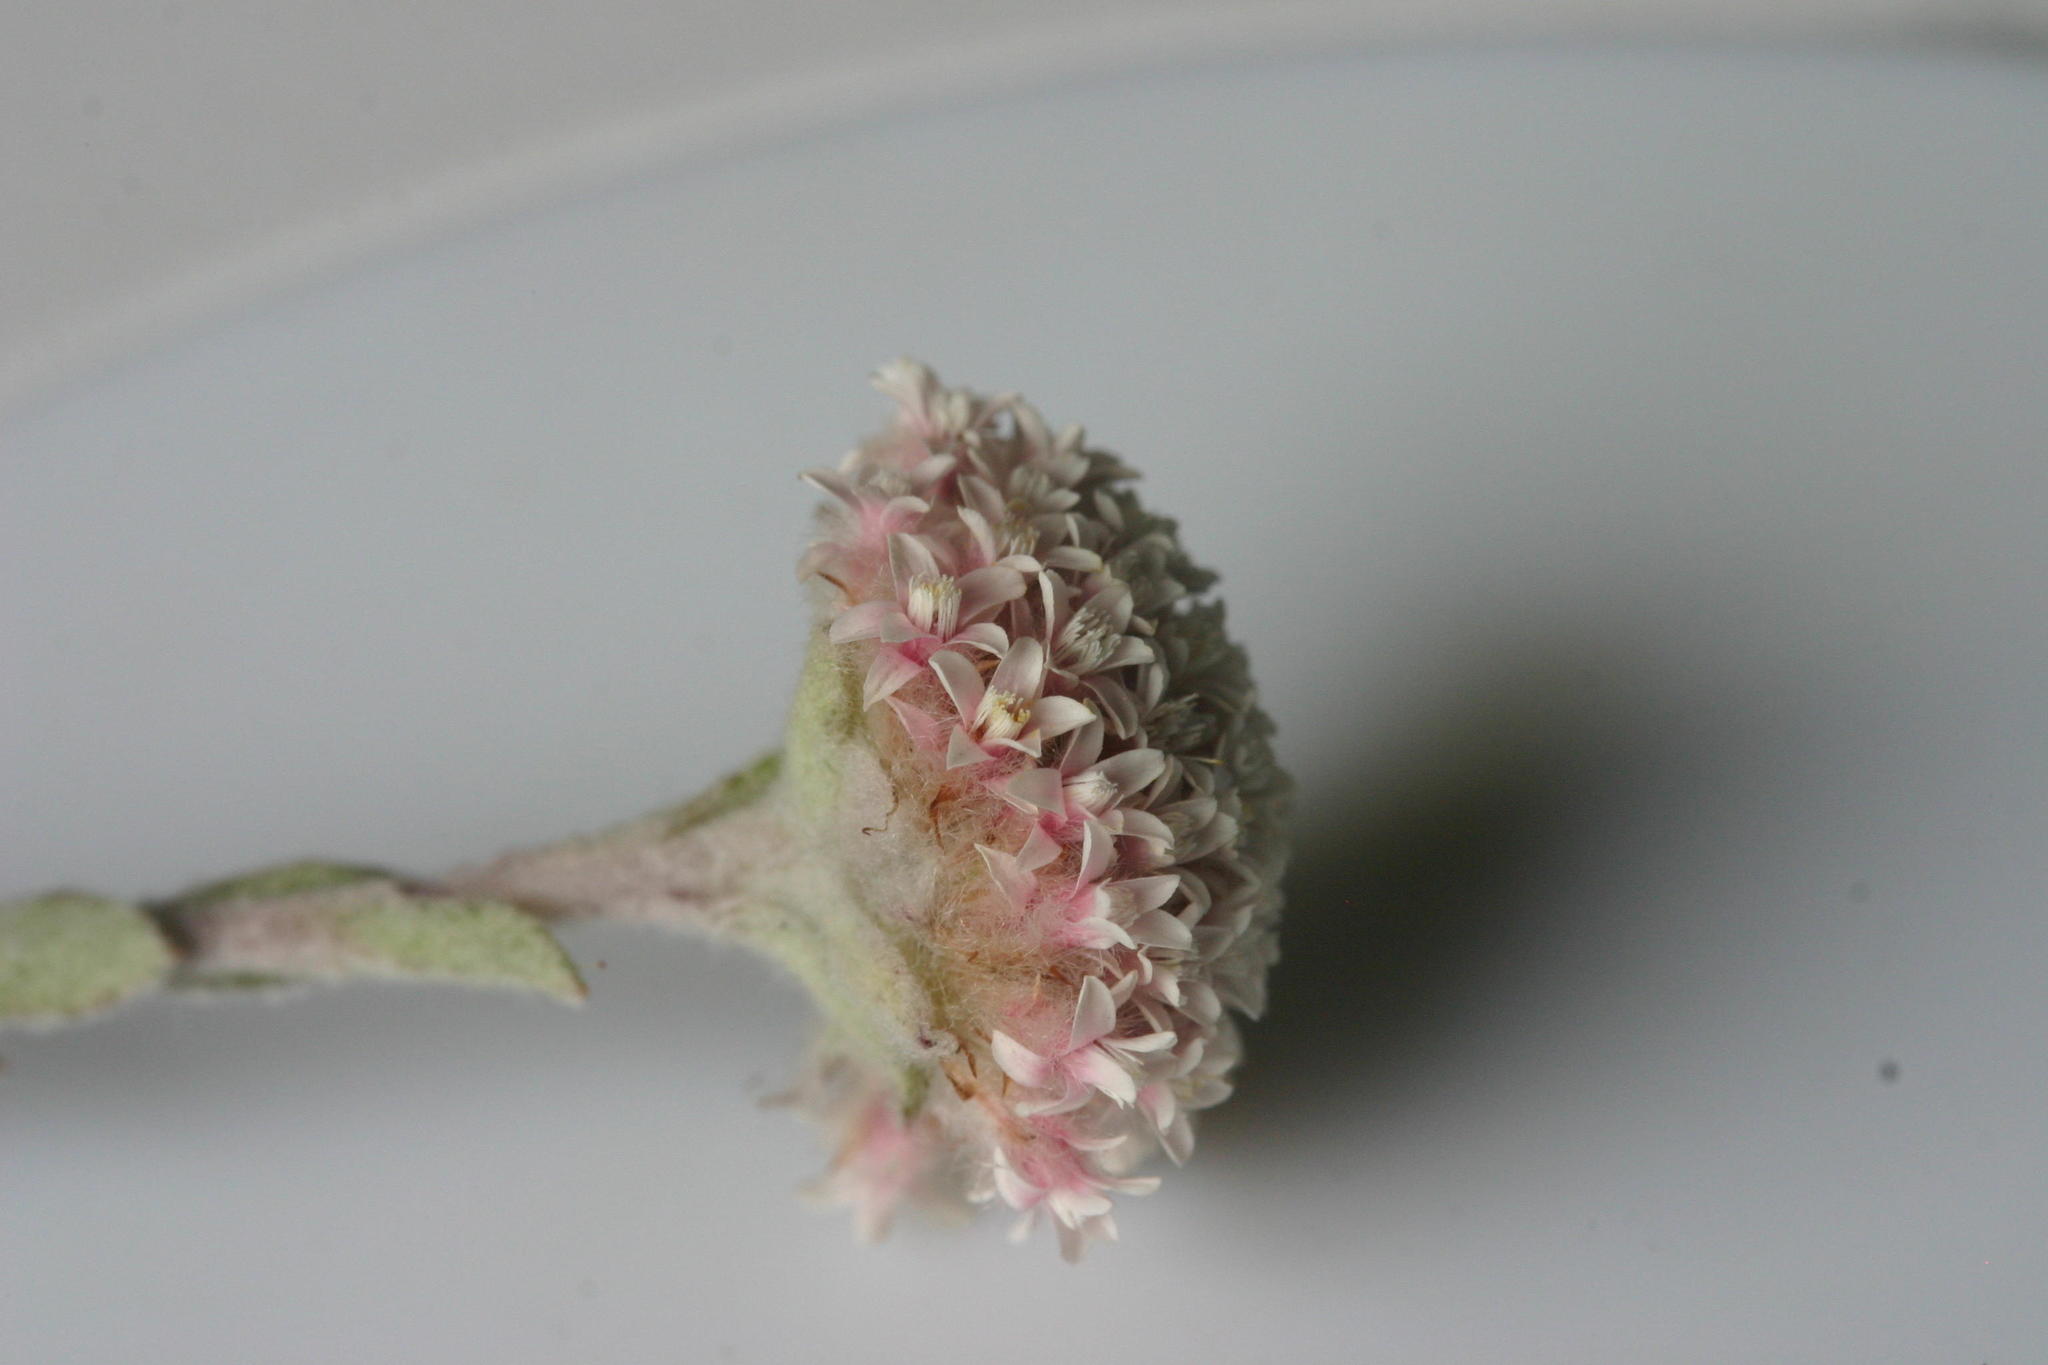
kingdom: Plantae
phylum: Tracheophyta
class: Magnoliopsida
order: Asterales
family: Asteraceae
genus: Langebergia
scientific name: Langebergia canescens
